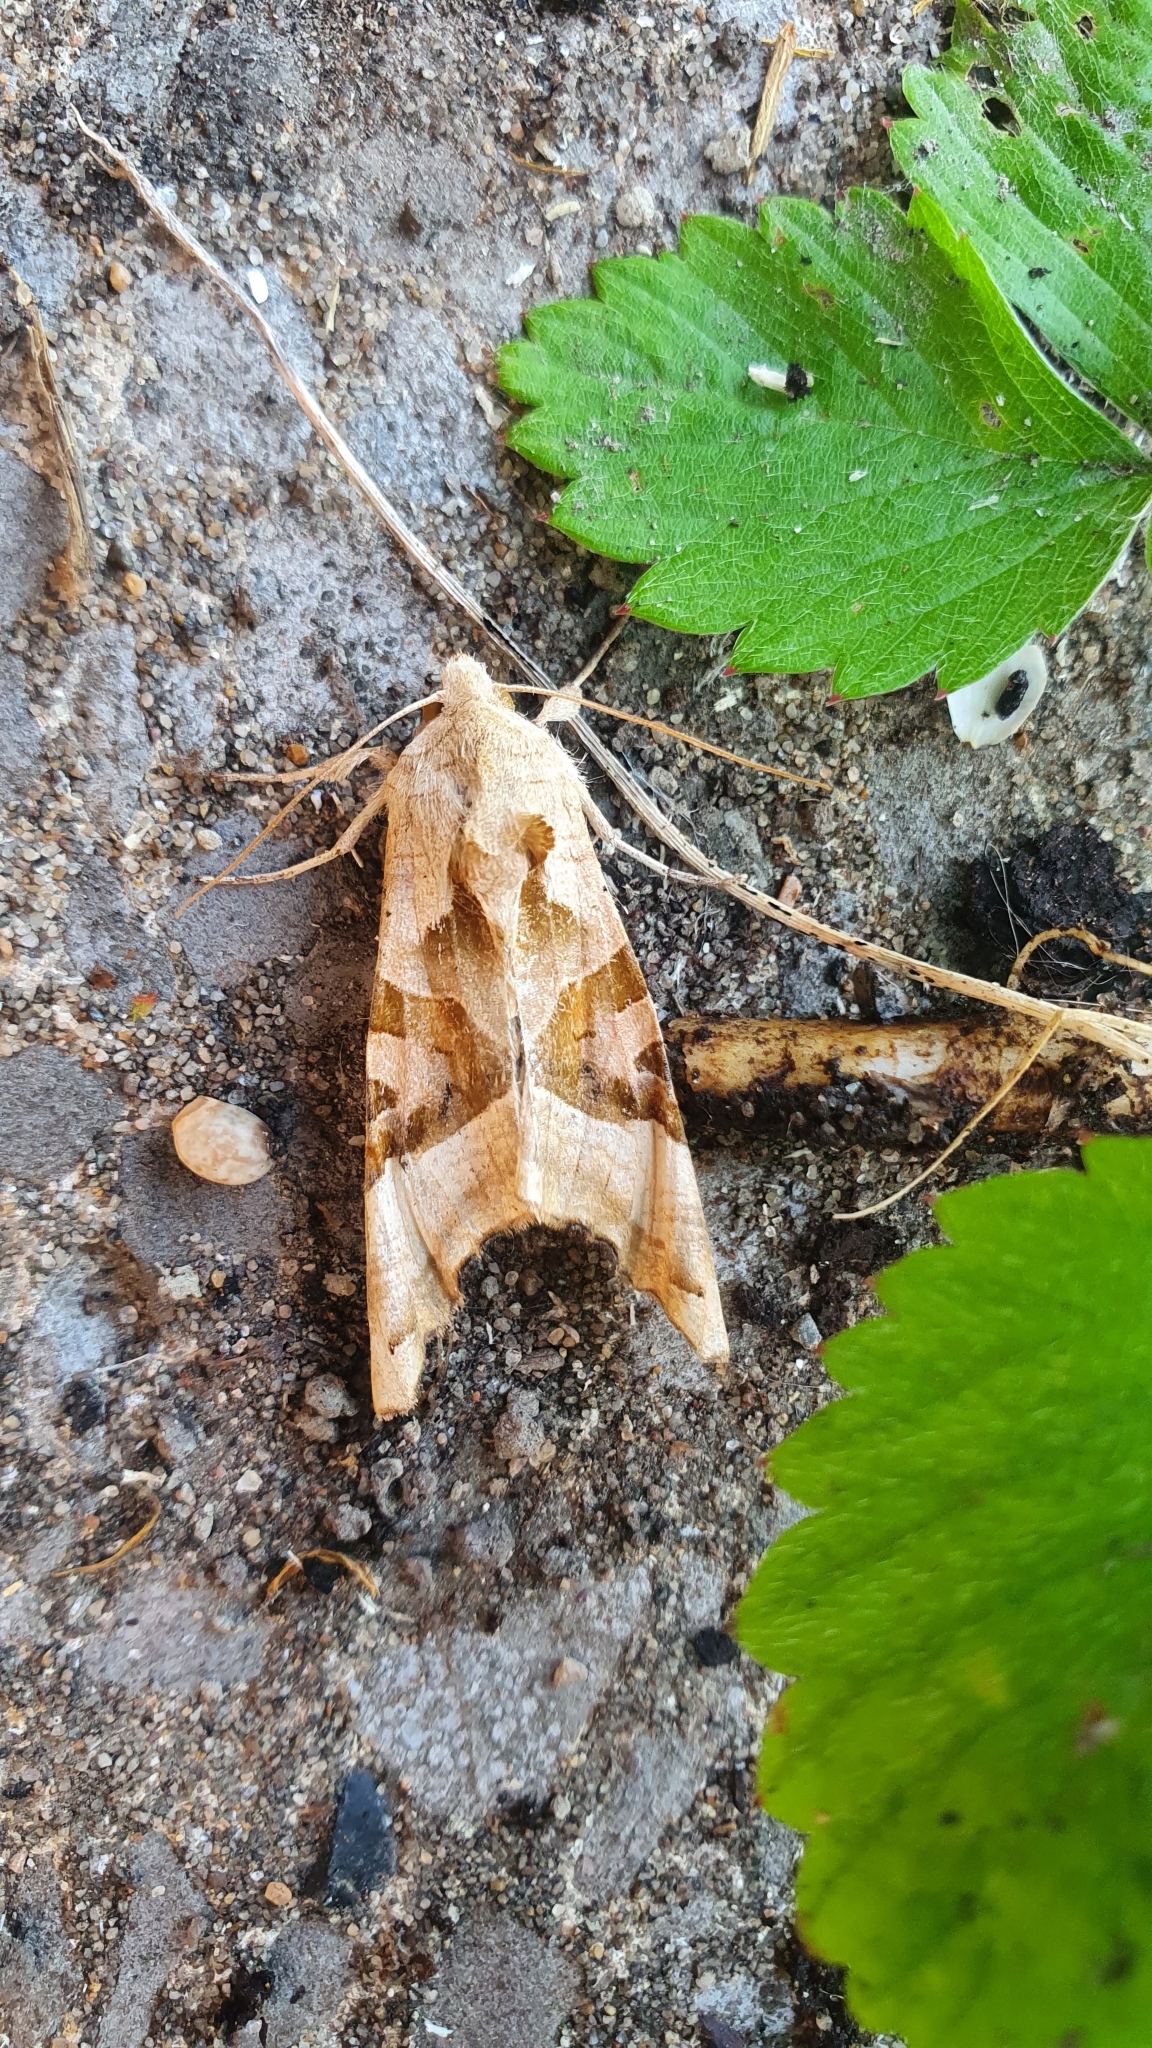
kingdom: Animalia
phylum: Arthropoda
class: Insecta
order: Lepidoptera
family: Noctuidae
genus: Phlogophora
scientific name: Phlogophora meticulosa
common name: Angle shades
